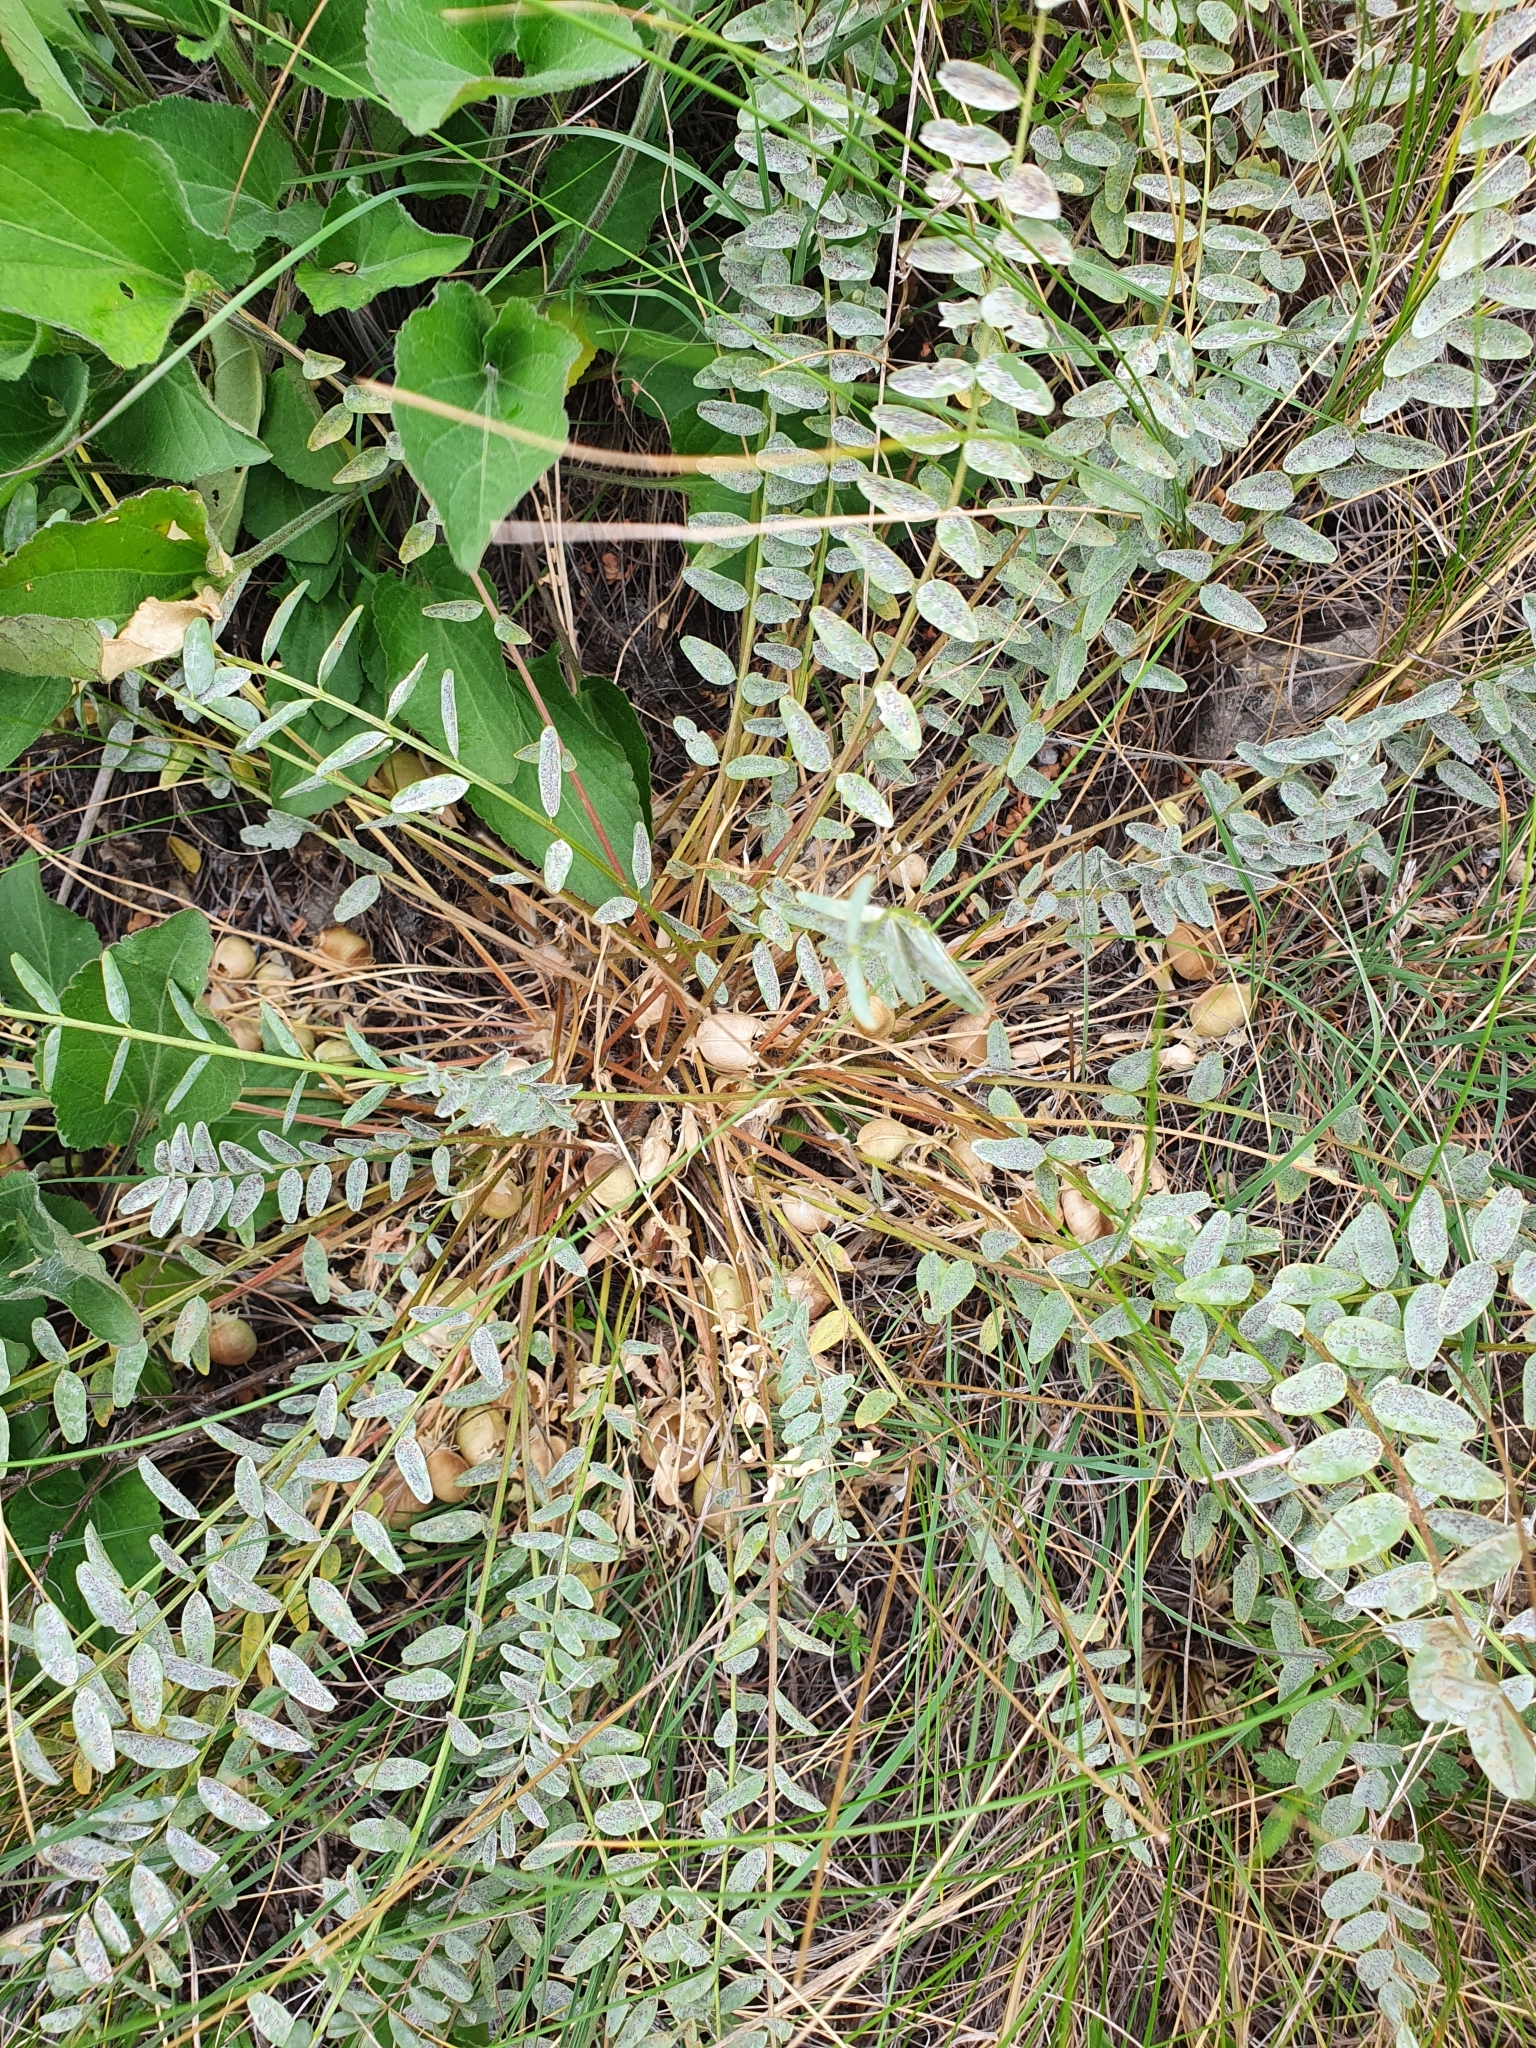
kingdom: Plantae
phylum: Tracheophyta
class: Magnoliopsida
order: Fabales
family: Fabaceae
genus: Astragalus
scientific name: Astragalus wolgensis
